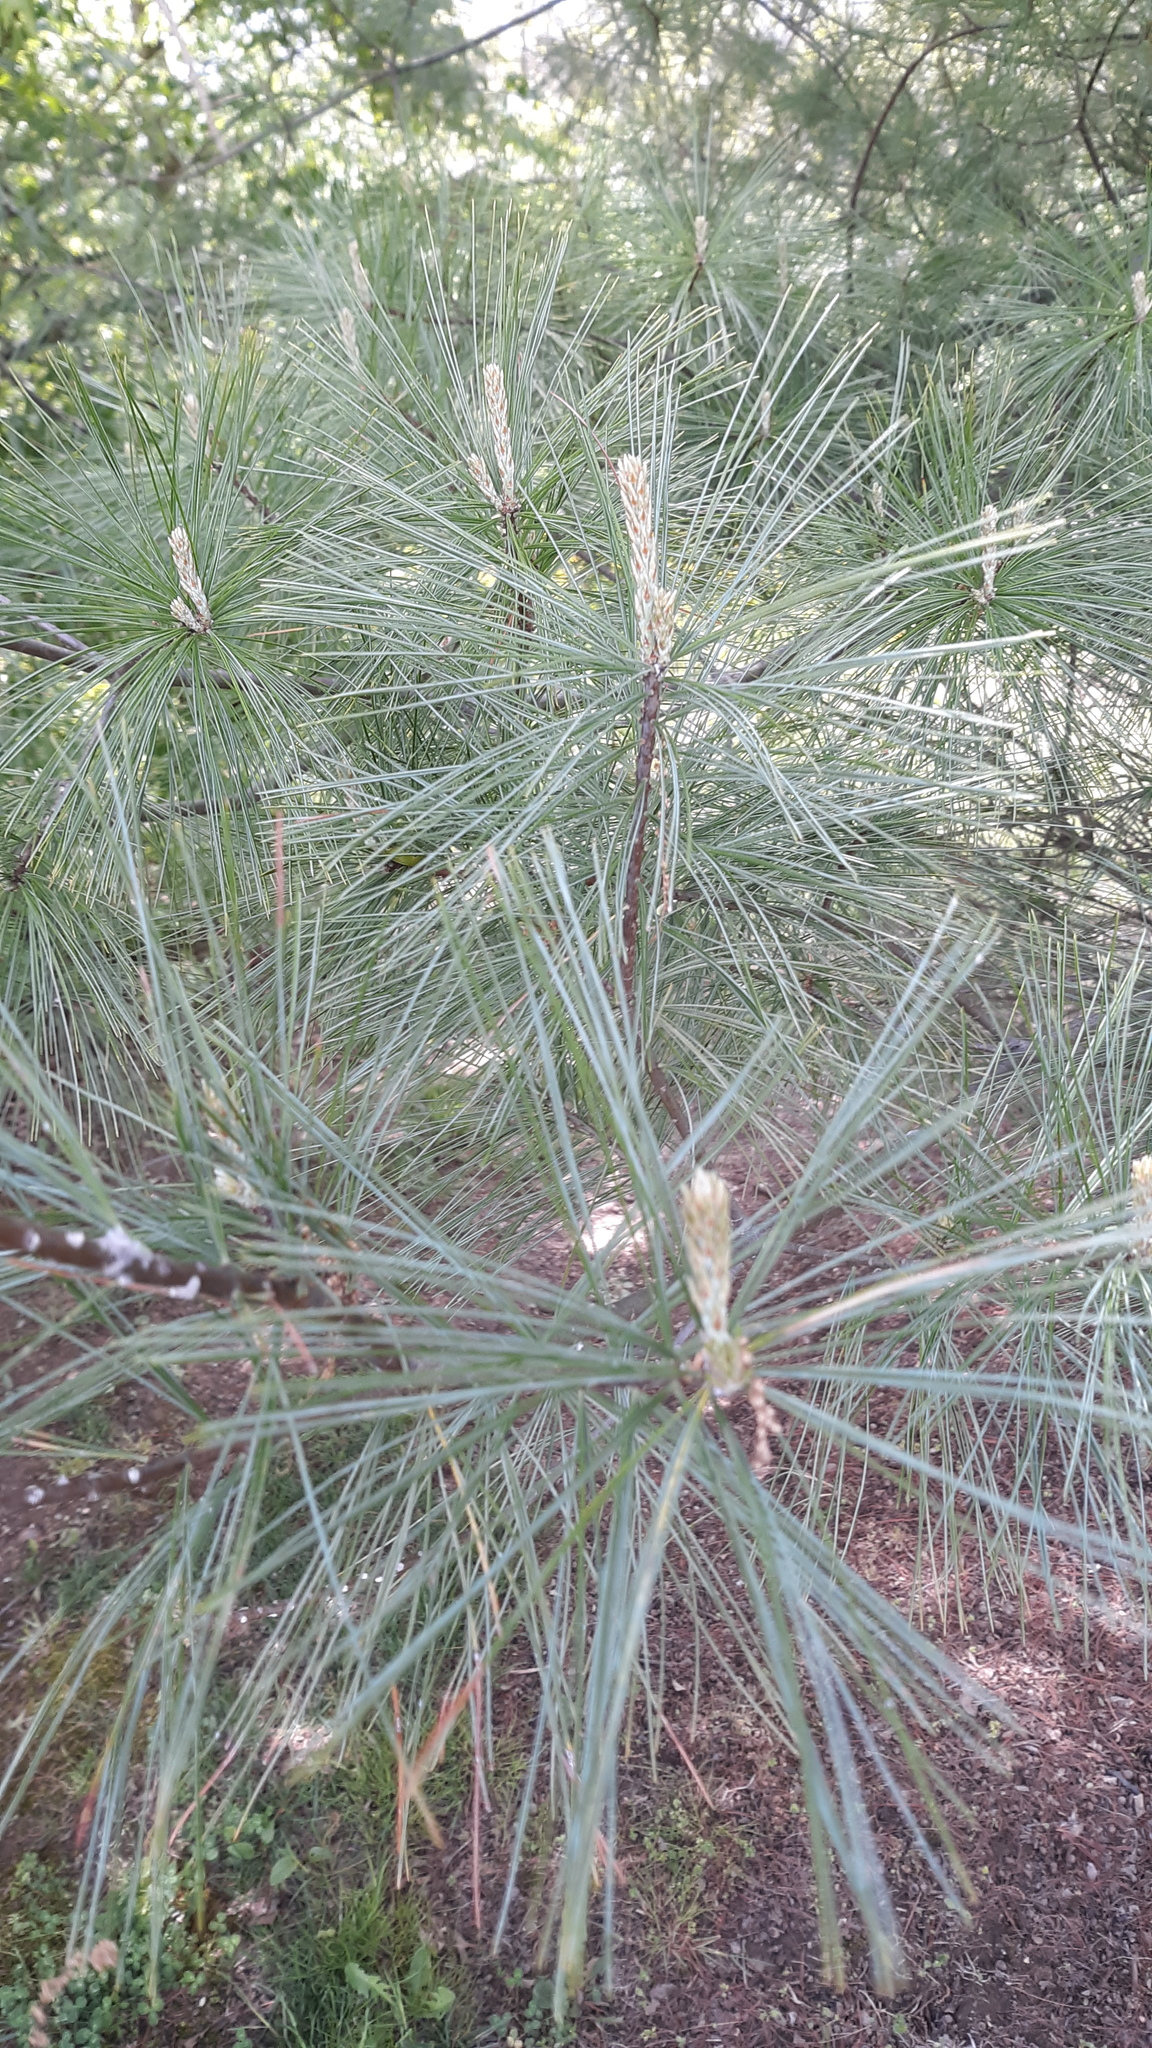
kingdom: Plantae
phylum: Tracheophyta
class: Pinopsida
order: Pinales
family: Pinaceae
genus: Pinus
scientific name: Pinus strobus
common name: Weymouth pine
